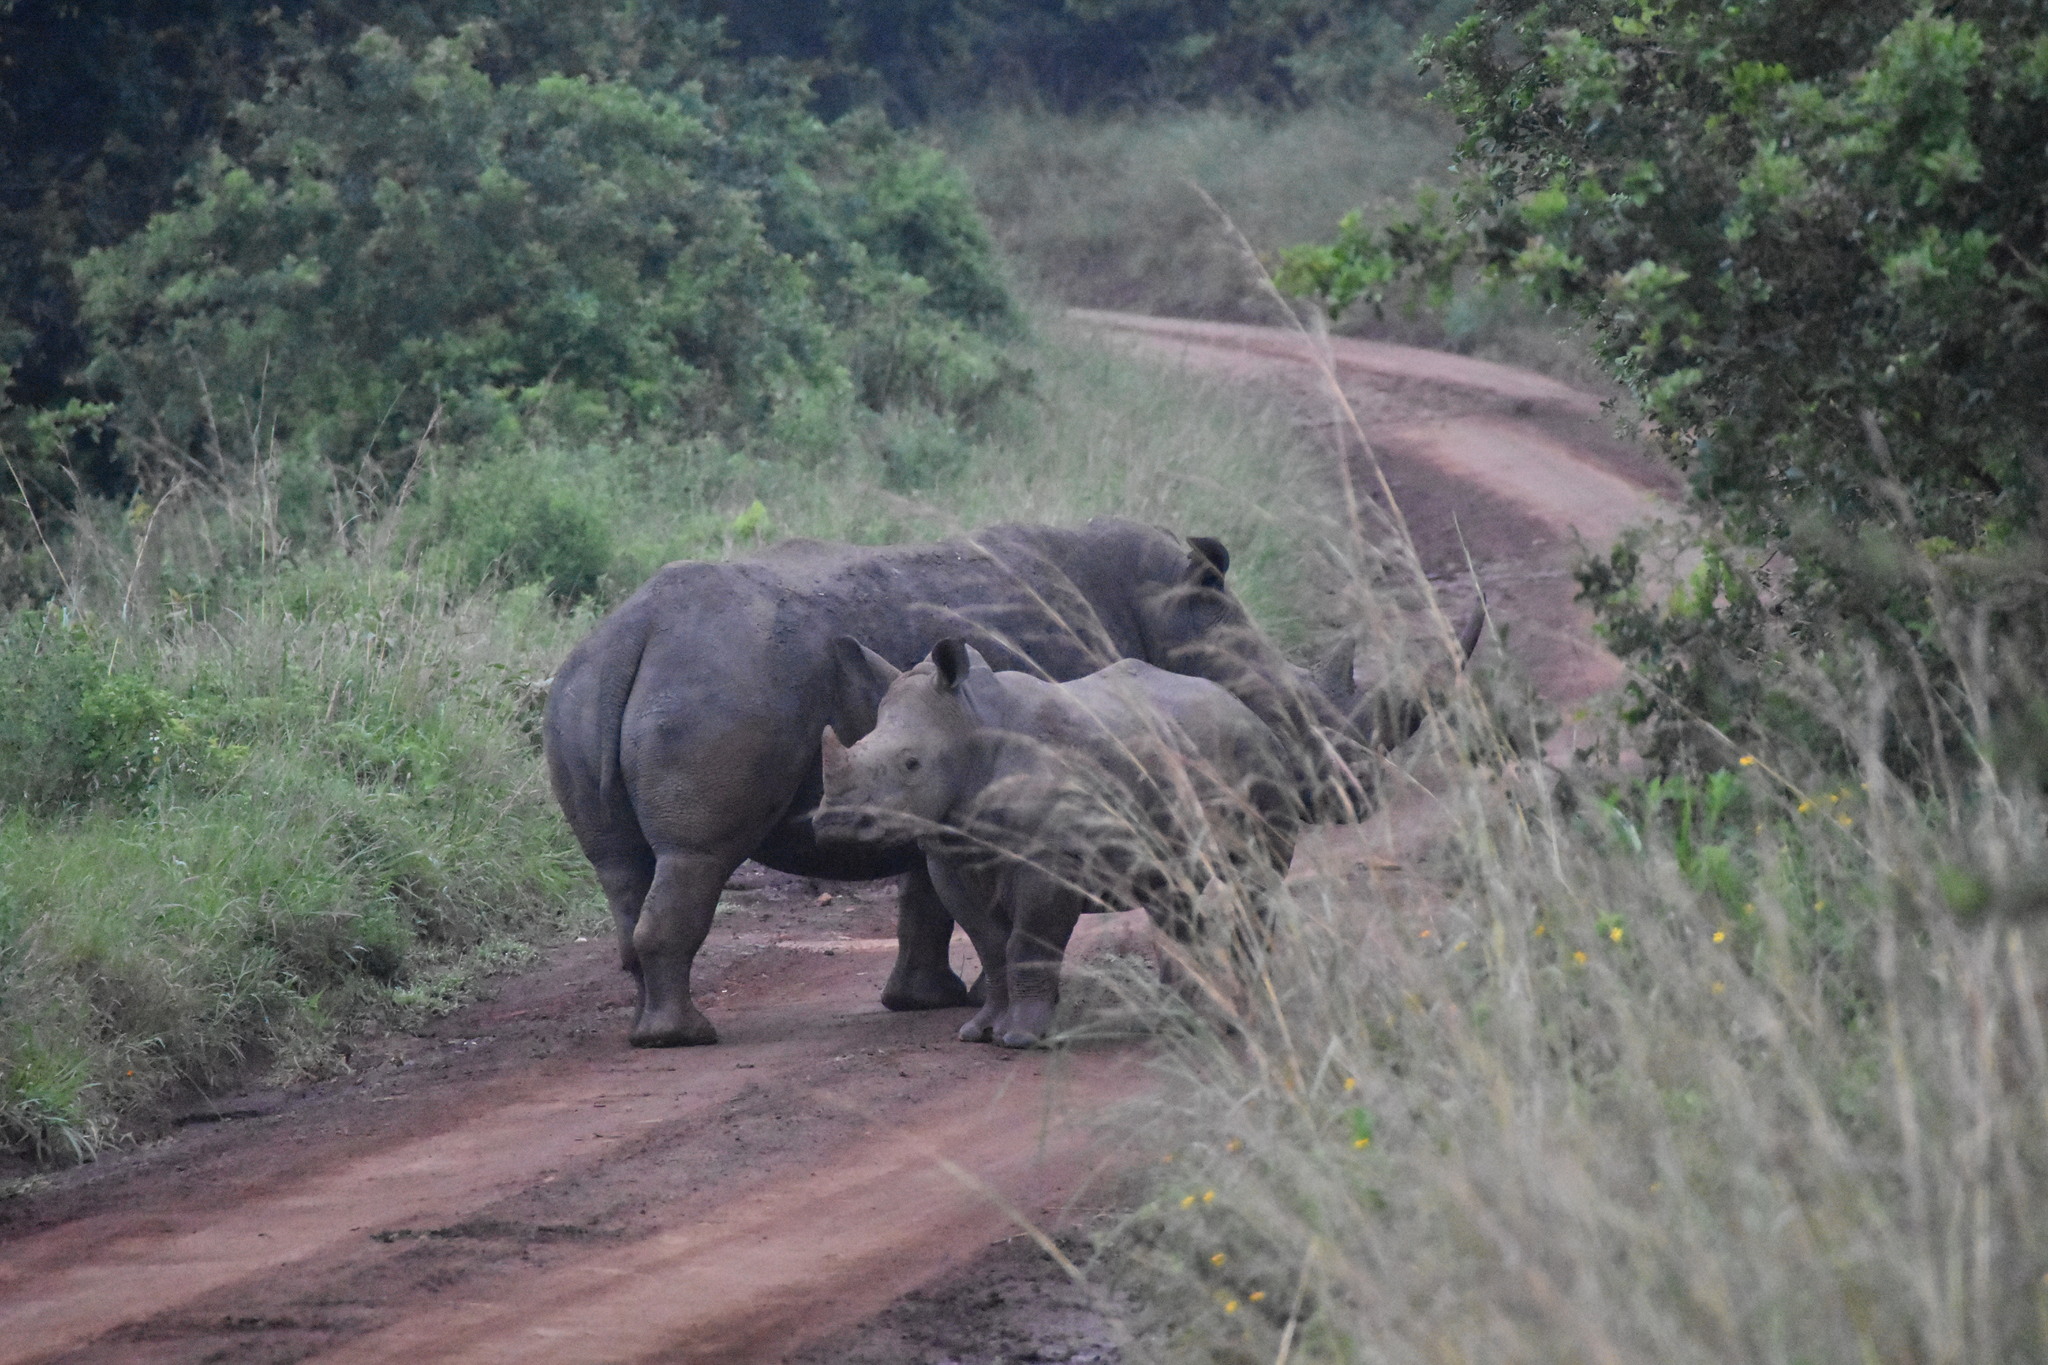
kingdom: Animalia
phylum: Chordata
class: Mammalia
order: Perissodactyla
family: Rhinocerotidae
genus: Ceratotherium
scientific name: Ceratotherium simum
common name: White rhinoceros
